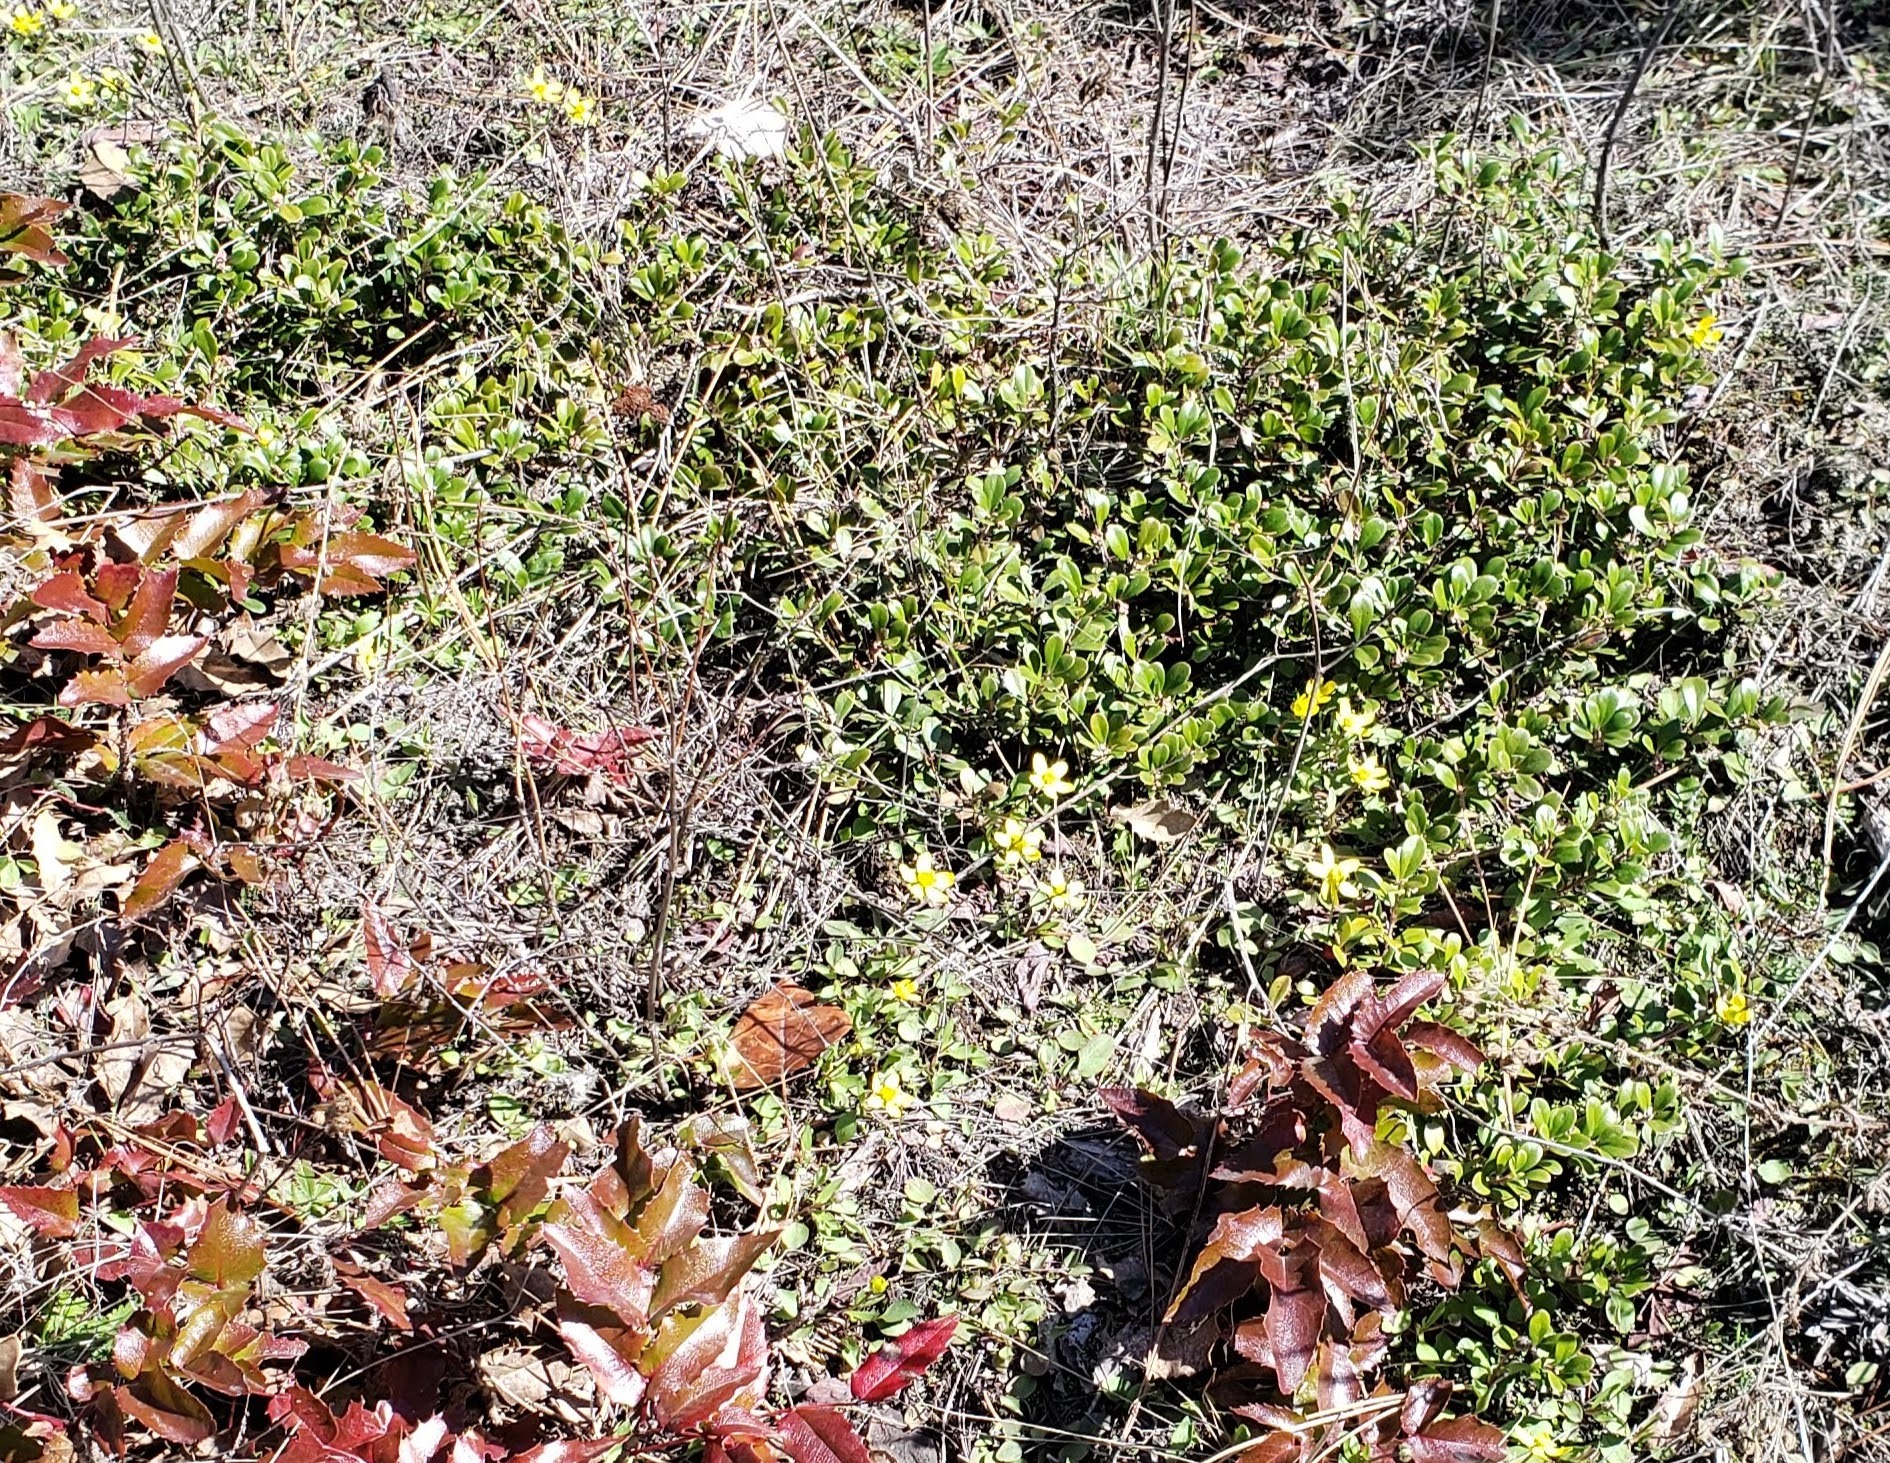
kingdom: Plantae
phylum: Tracheophyta
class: Magnoliopsida
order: Ericales
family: Ericaceae
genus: Arctostaphylos
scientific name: Arctostaphylos uva-ursi
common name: Bearberry
